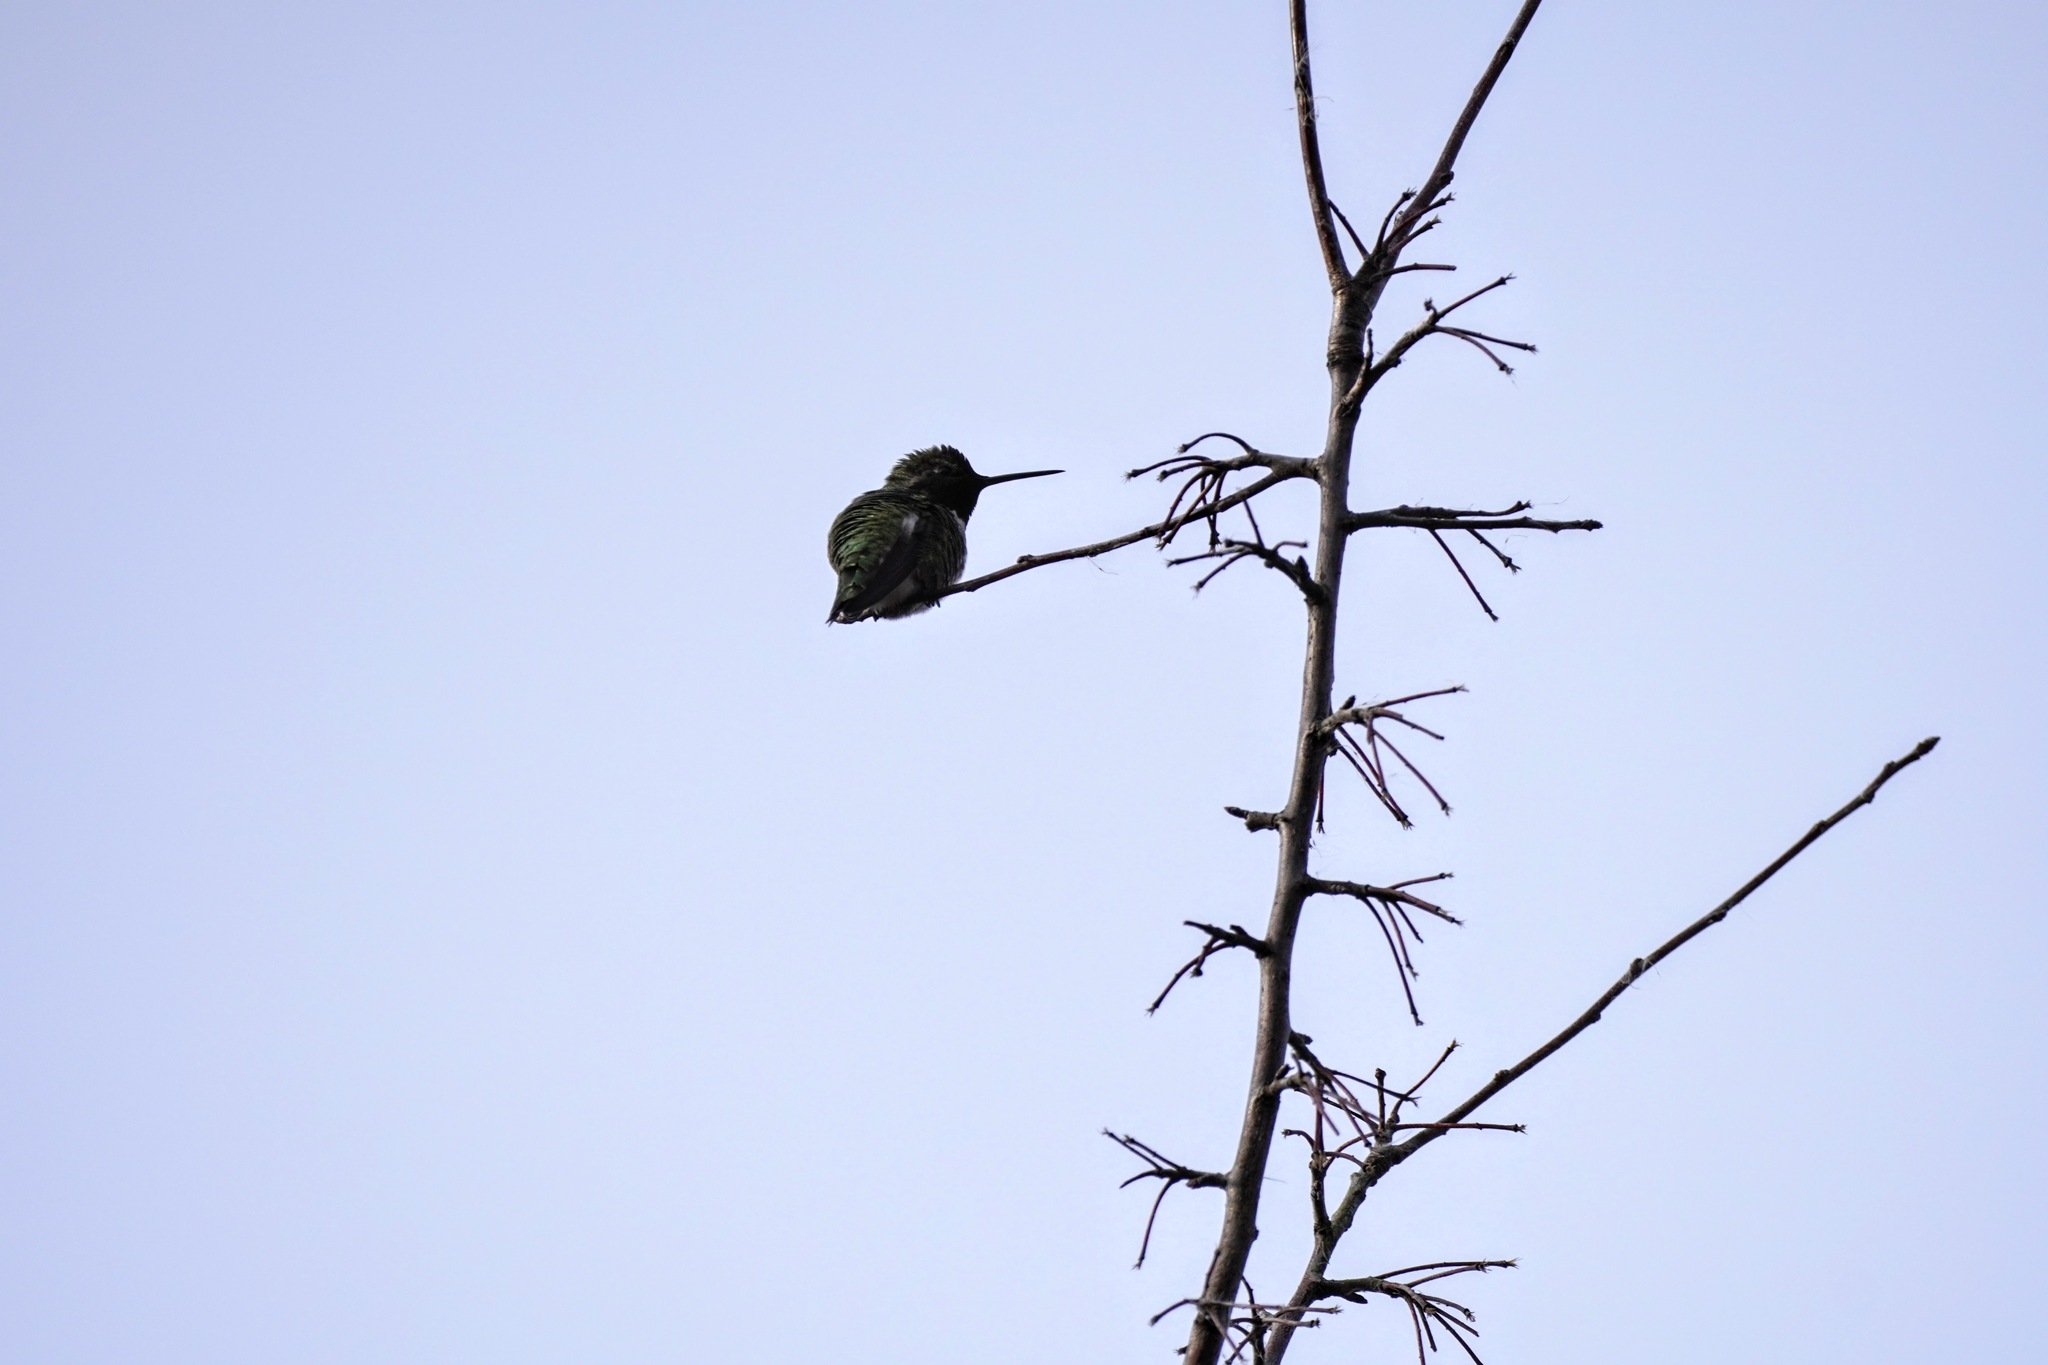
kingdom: Animalia
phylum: Chordata
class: Aves
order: Apodiformes
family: Trochilidae
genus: Calypte
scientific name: Calypte anna
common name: Anna's hummingbird
